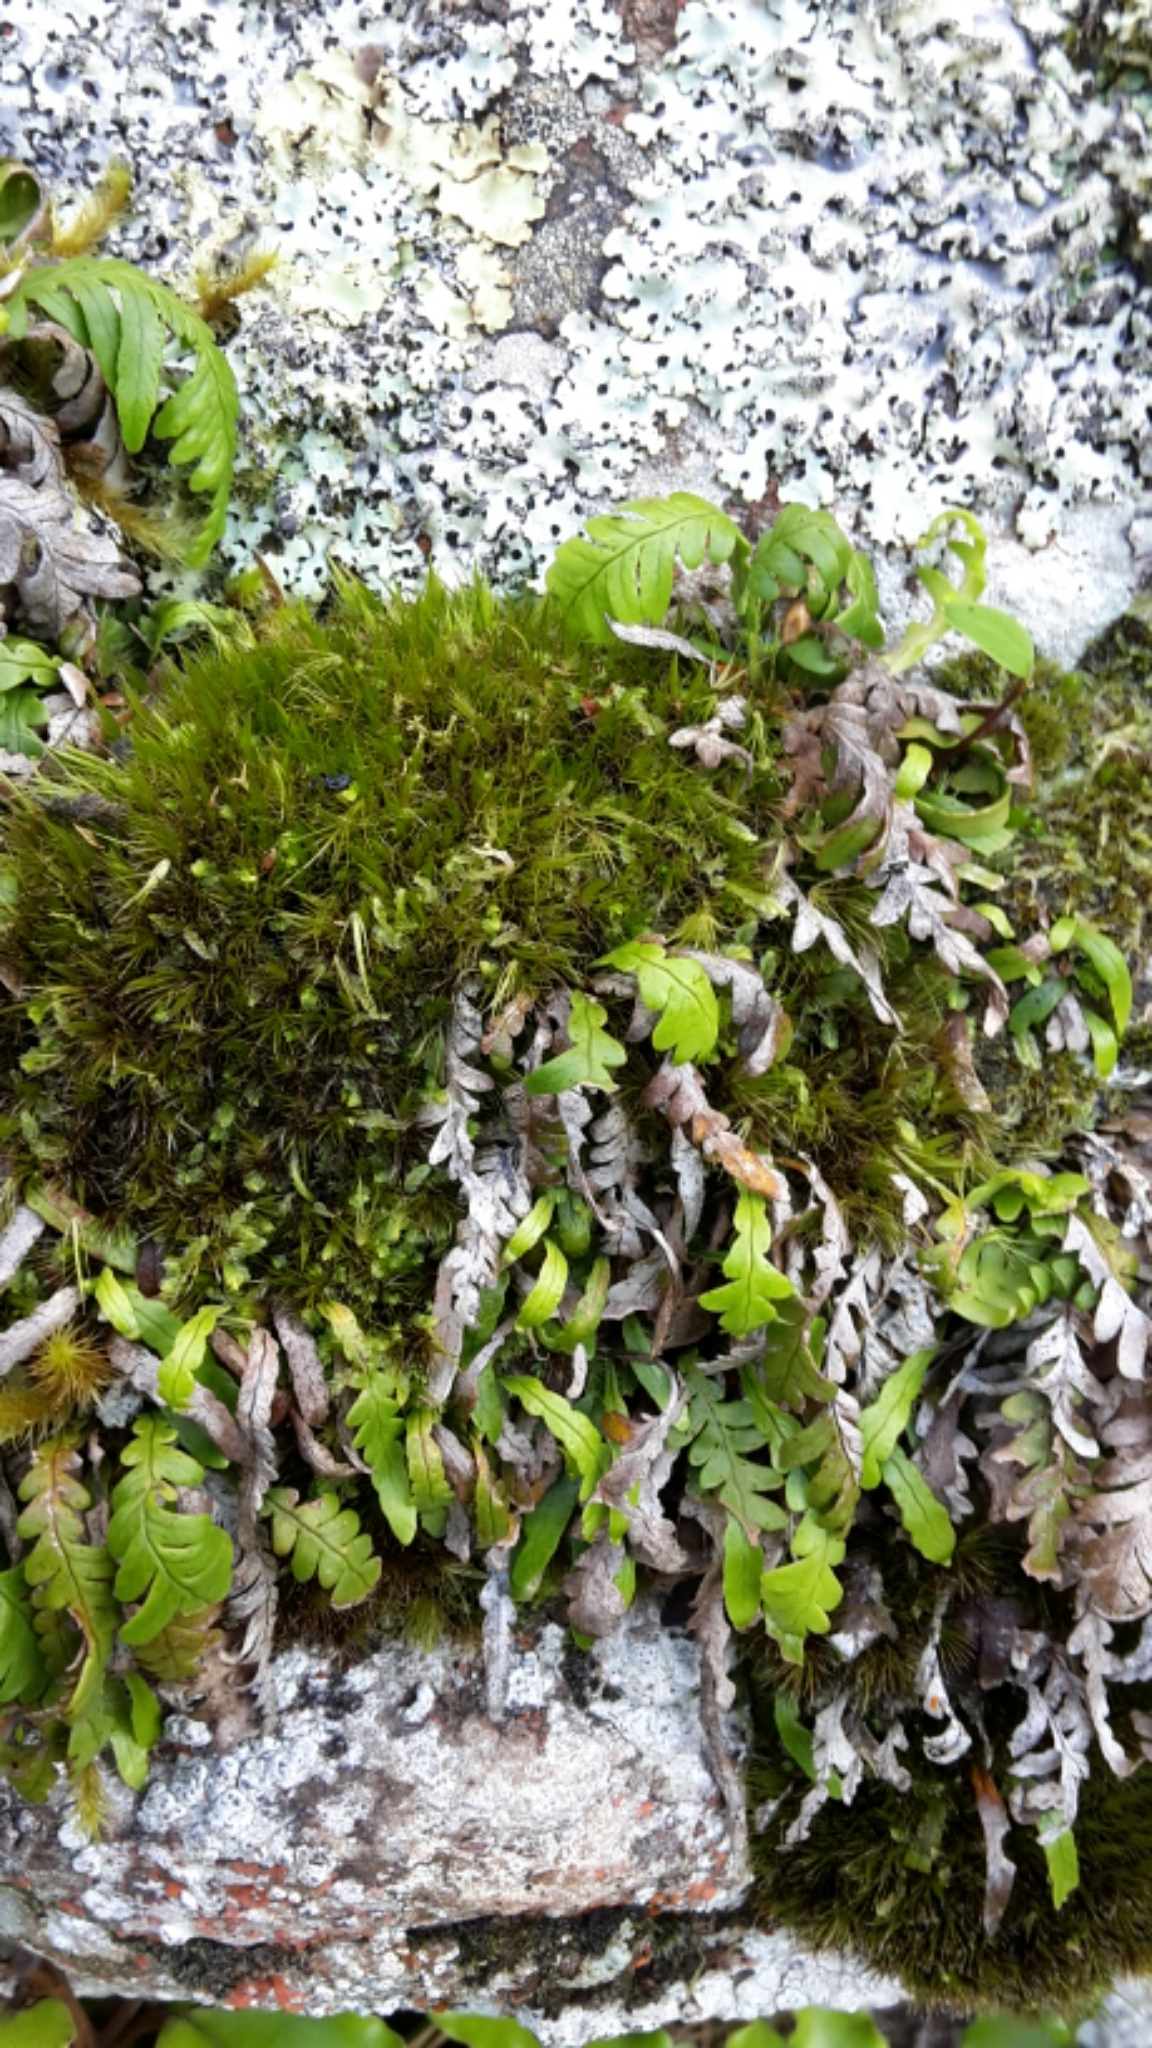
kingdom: Plantae
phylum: Tracheophyta
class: Polypodiopsida
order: Polypodiales
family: Polypodiaceae
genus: Notogrammitis
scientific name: Notogrammitis heterophylla
